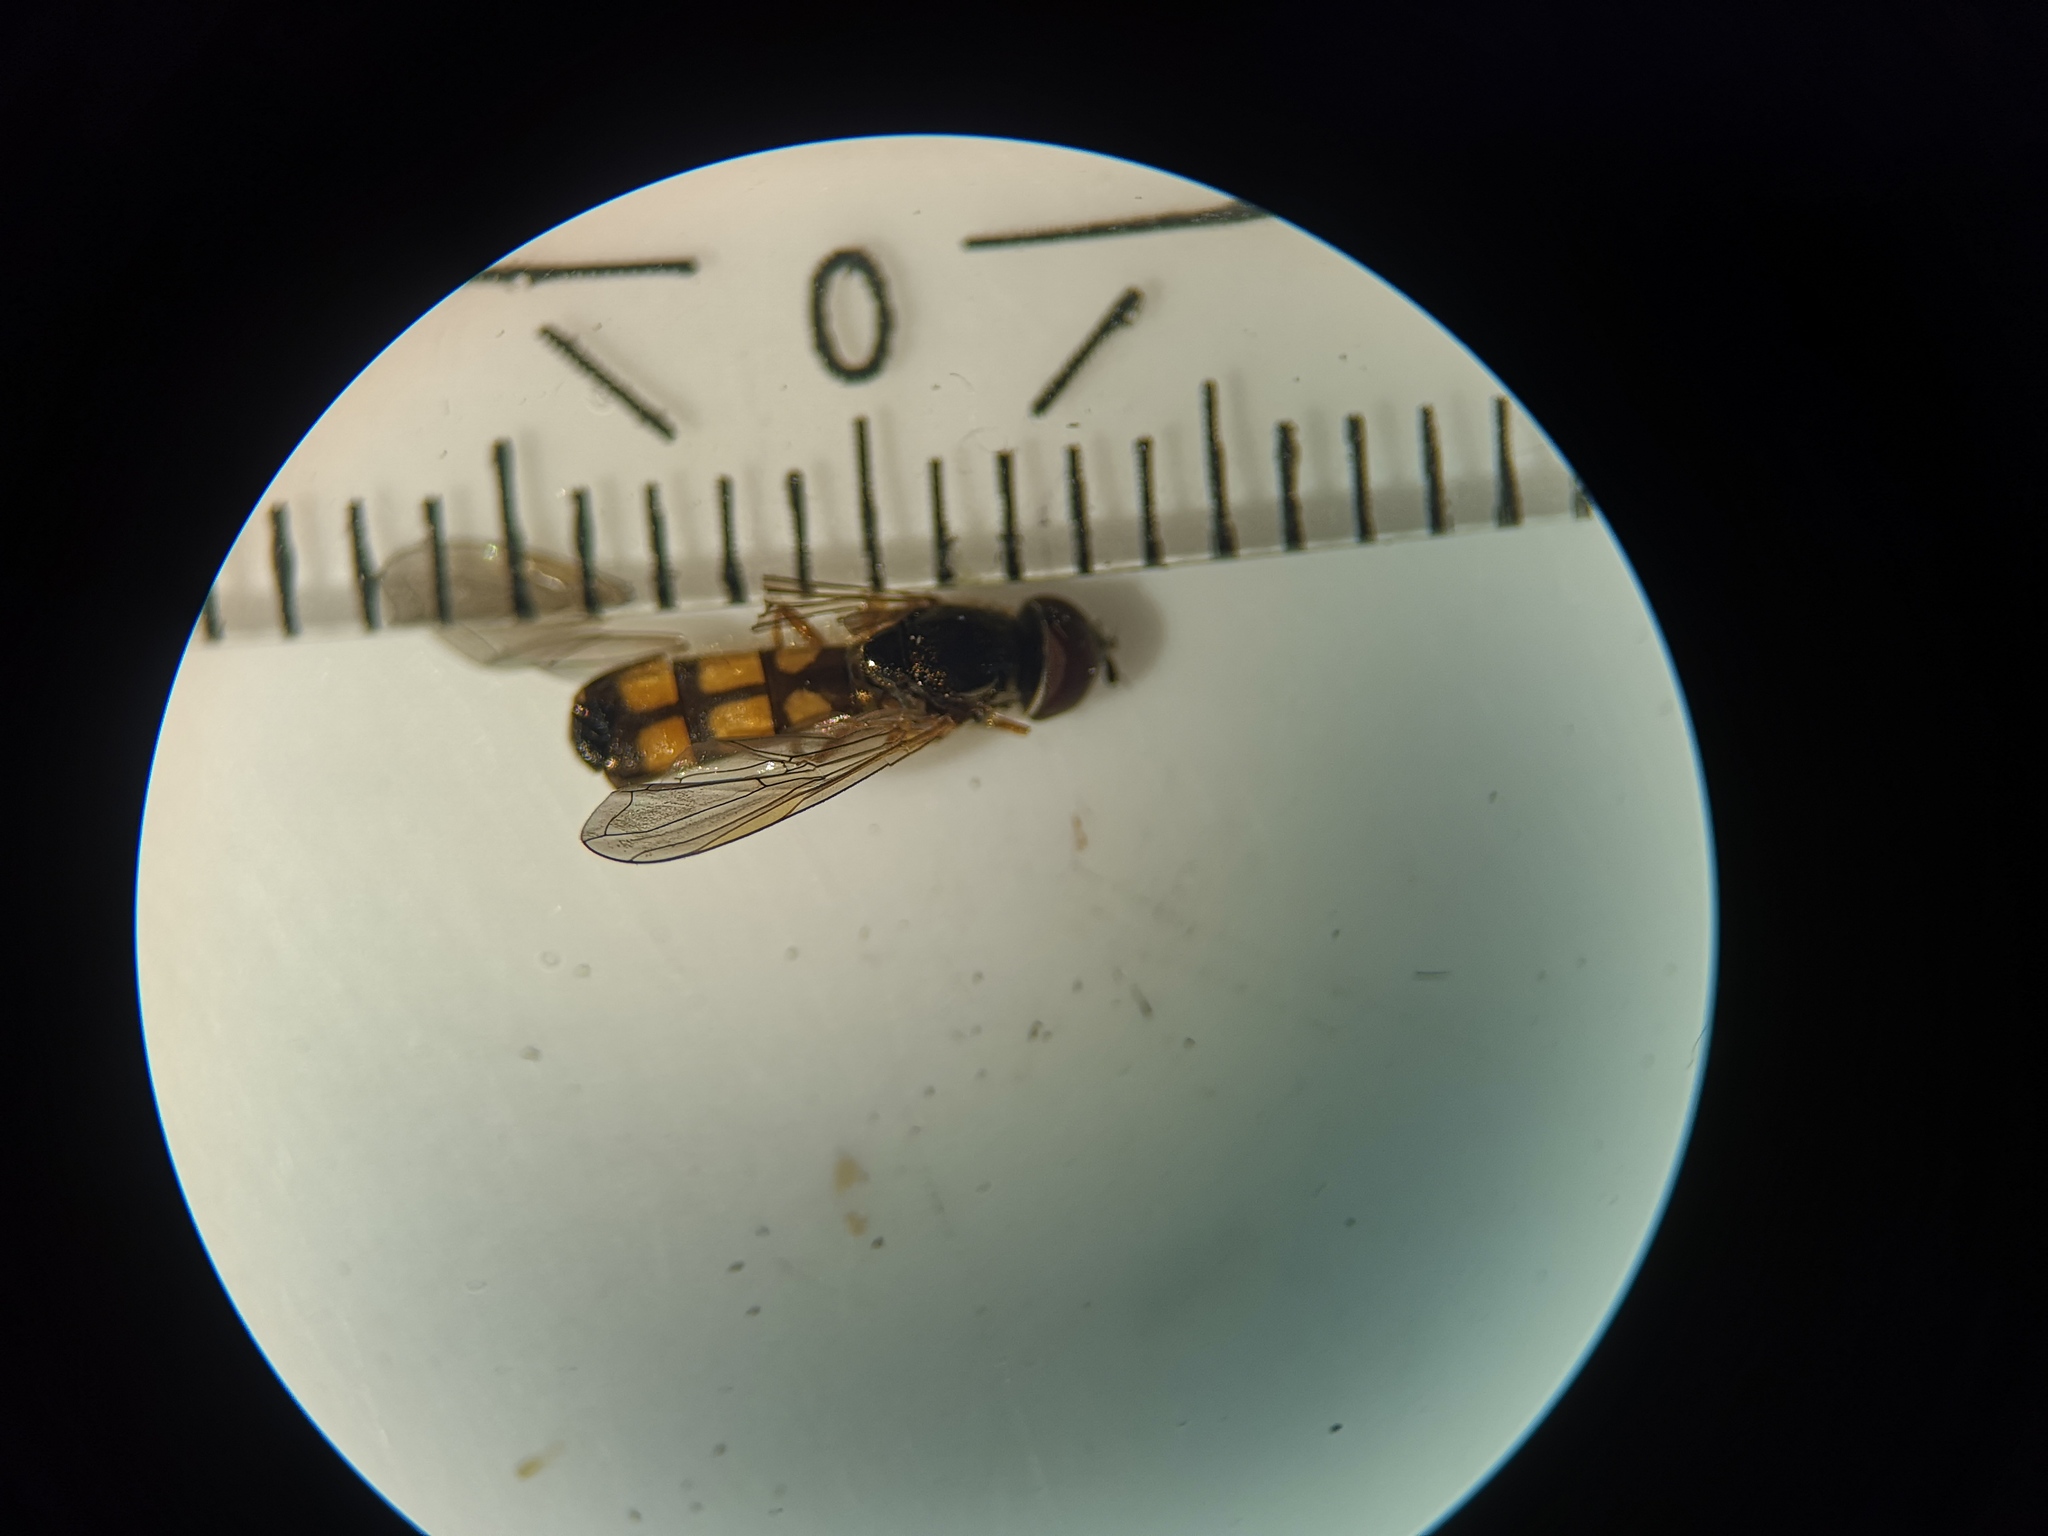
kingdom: Animalia
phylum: Arthropoda
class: Insecta
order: Diptera
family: Syrphidae
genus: Melanostoma
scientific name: Melanostoma mellina
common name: Hover fly
